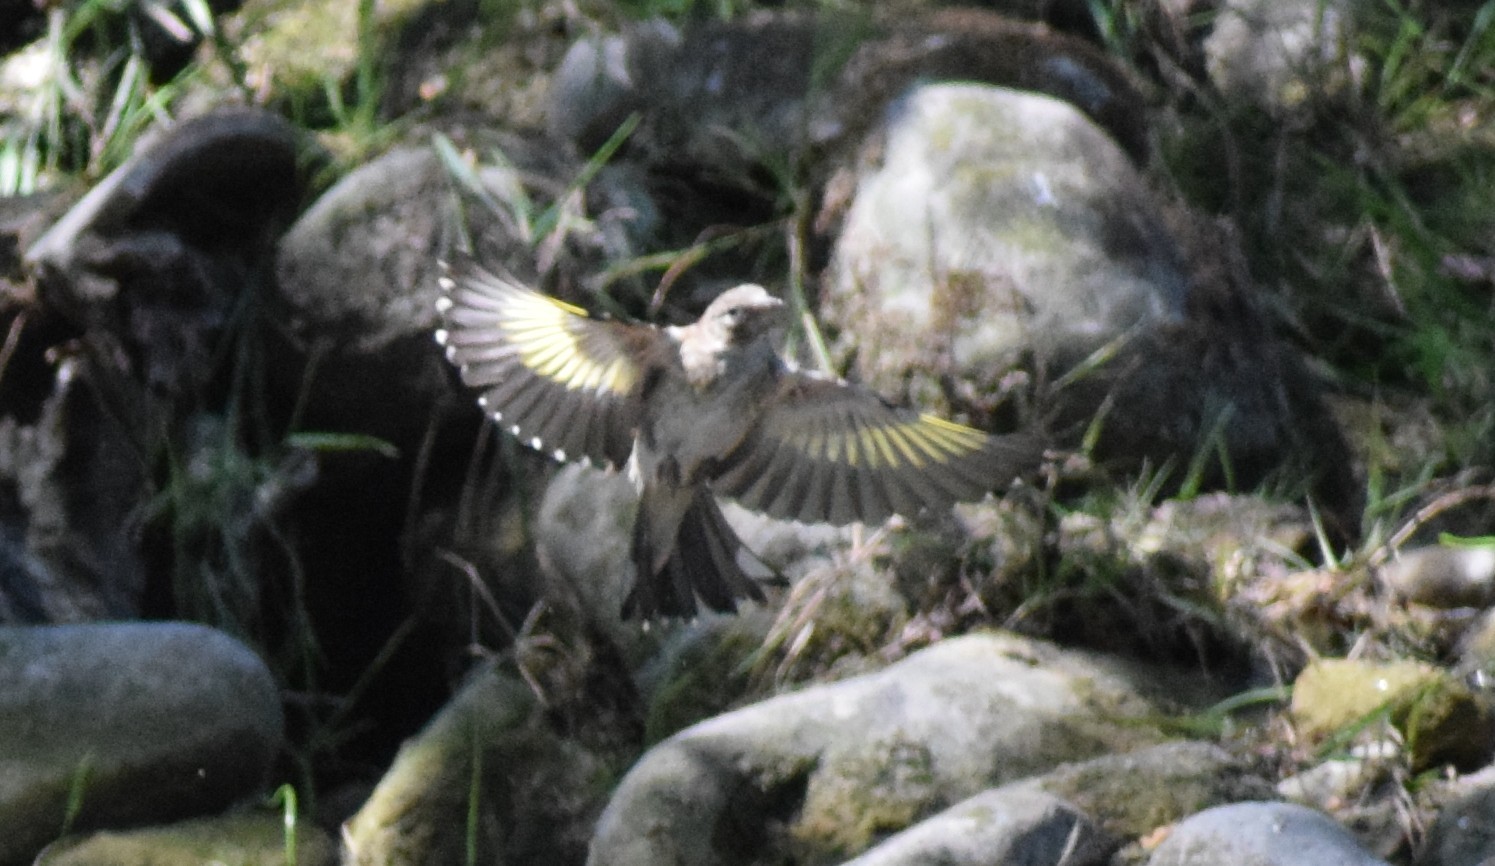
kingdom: Animalia
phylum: Chordata
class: Aves
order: Passeriformes
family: Fringillidae
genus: Carduelis
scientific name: Carduelis carduelis
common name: European goldfinch
